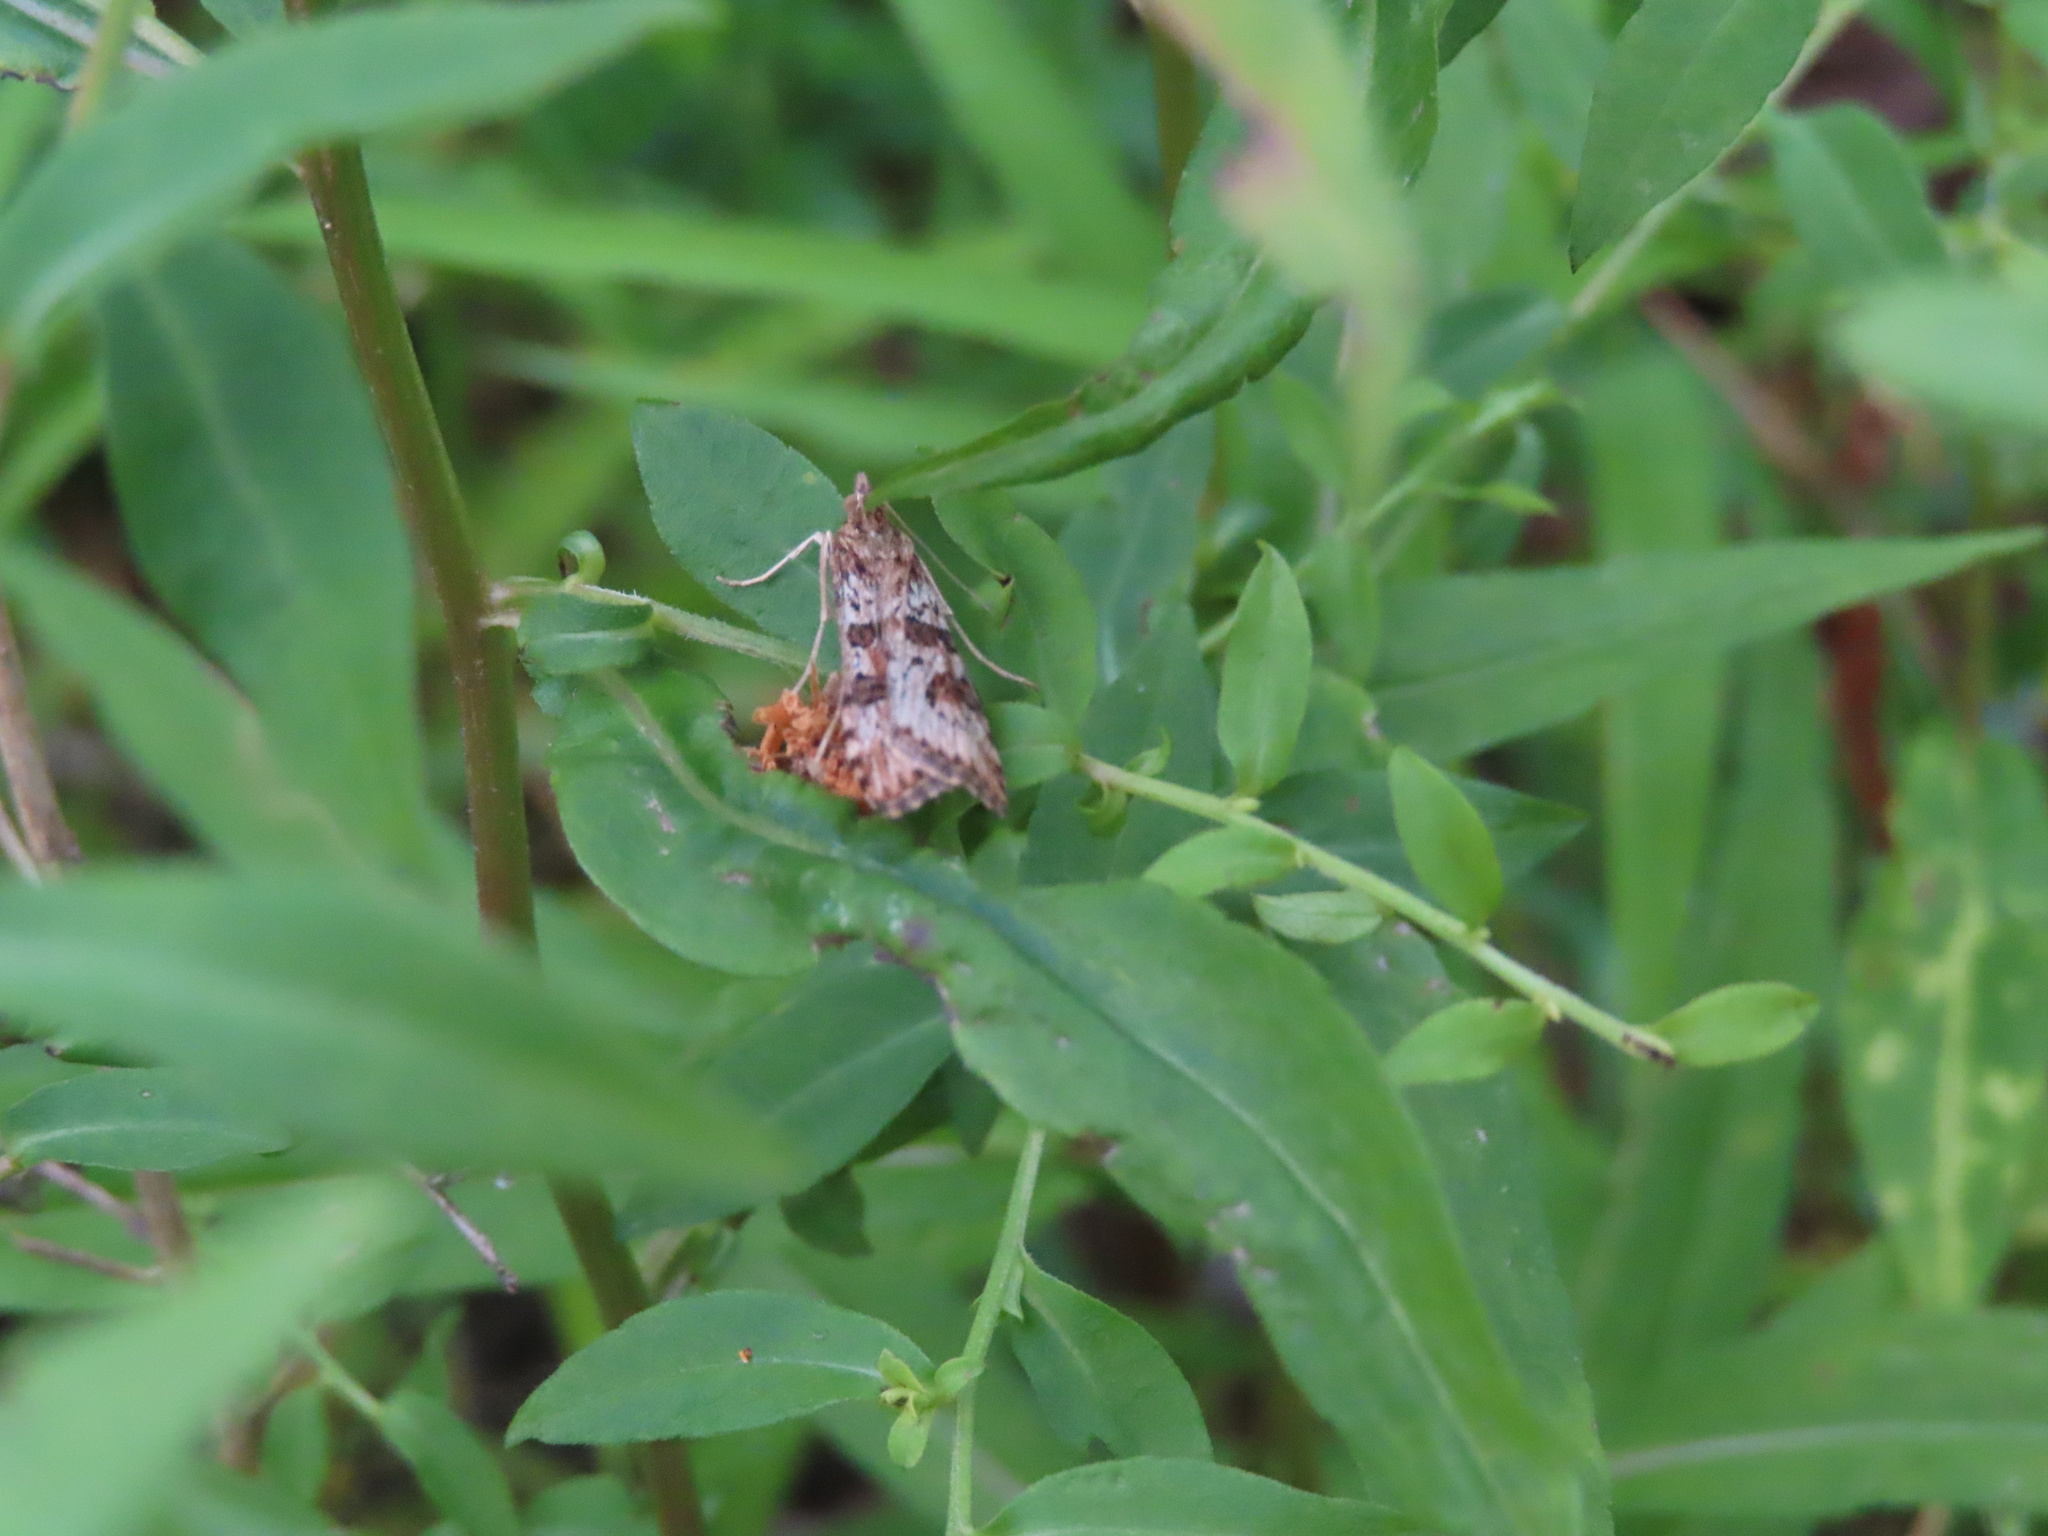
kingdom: Animalia
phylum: Arthropoda
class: Insecta
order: Lepidoptera
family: Crambidae
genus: Nomophila
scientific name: Nomophila nearctica
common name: American rush veneer
